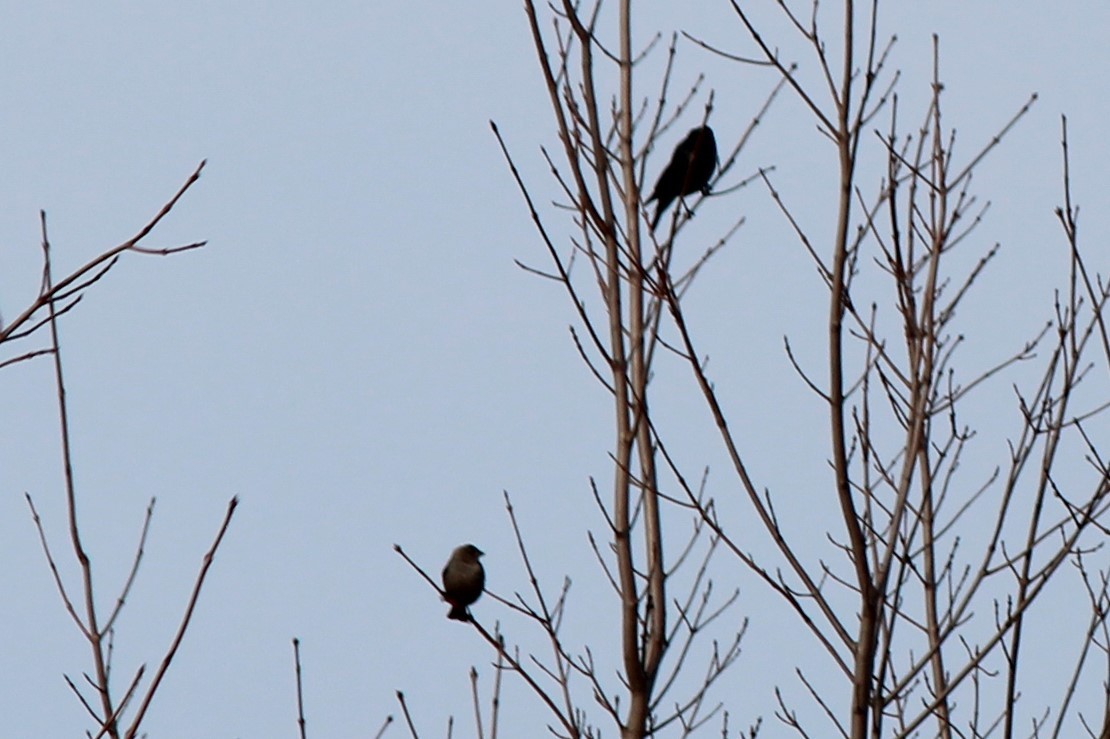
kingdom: Animalia
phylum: Chordata
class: Aves
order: Passeriformes
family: Icteridae
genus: Molothrus
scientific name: Molothrus ater
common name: Brown-headed cowbird
